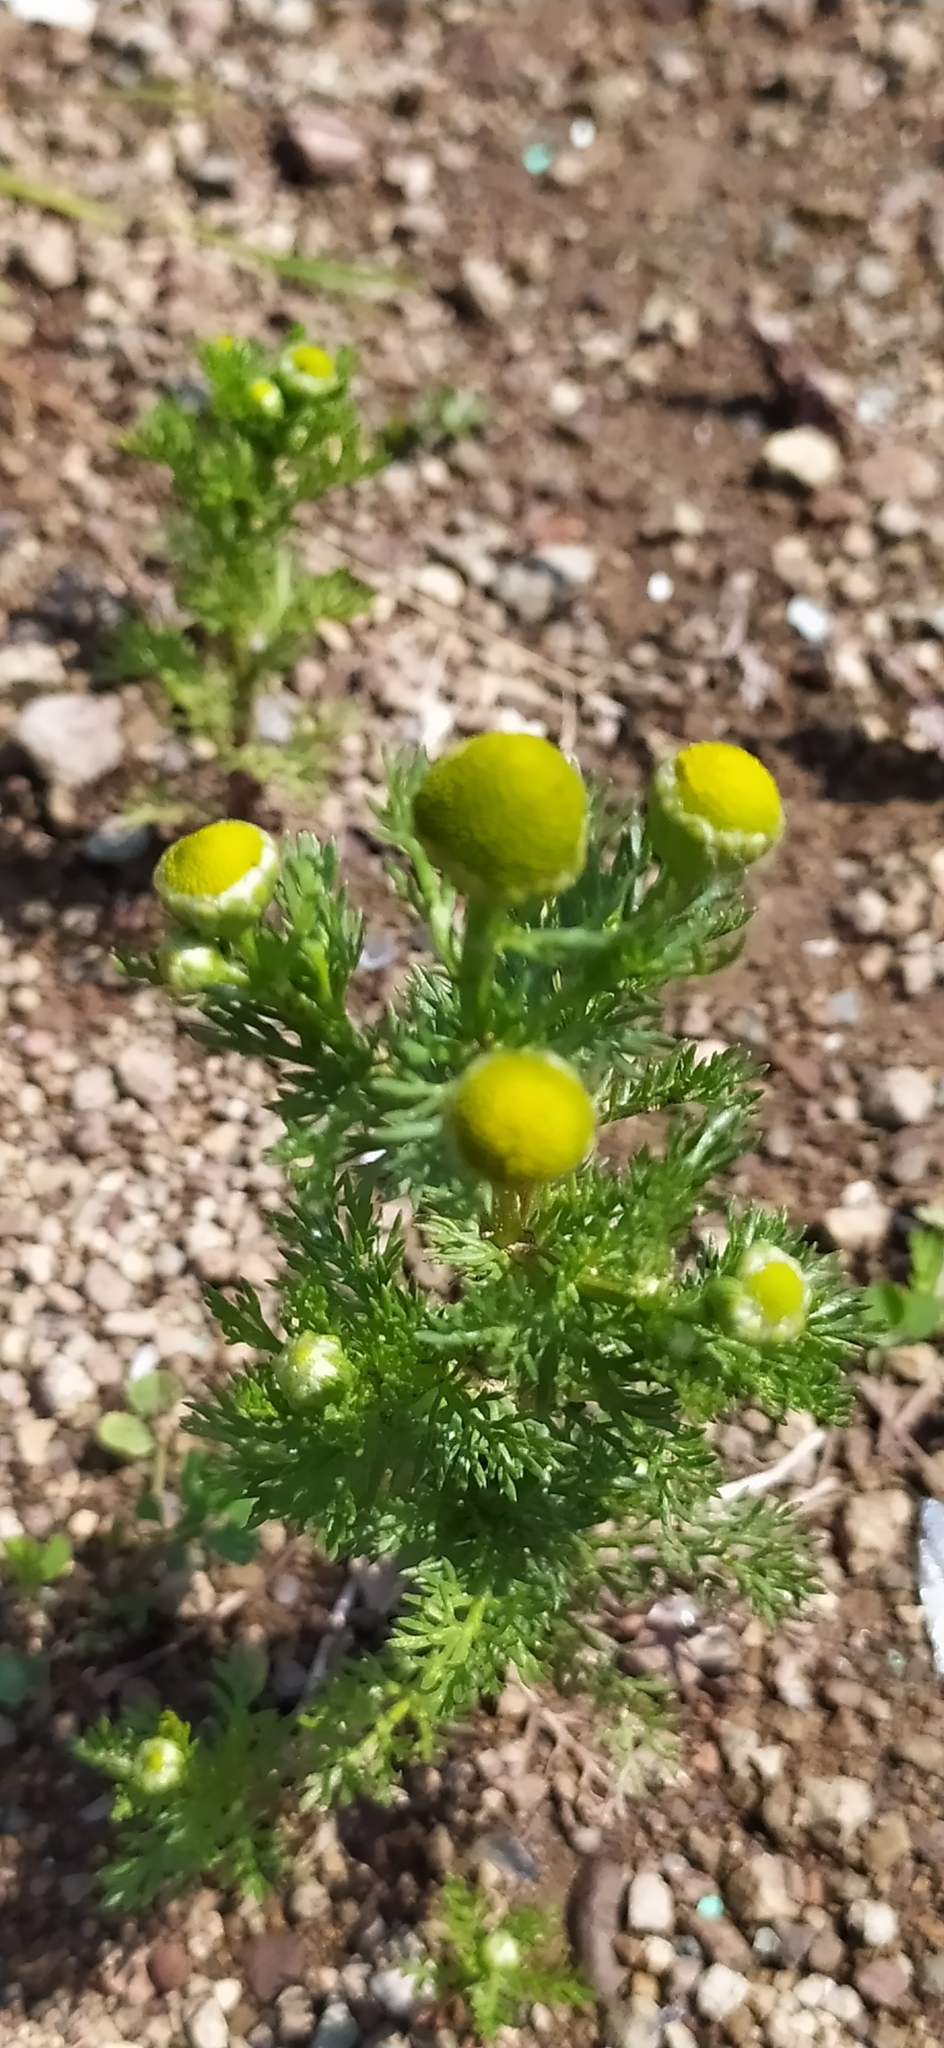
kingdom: Plantae
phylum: Tracheophyta
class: Magnoliopsida
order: Asterales
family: Asteraceae
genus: Matricaria
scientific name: Matricaria discoidea
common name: Disc mayweed
